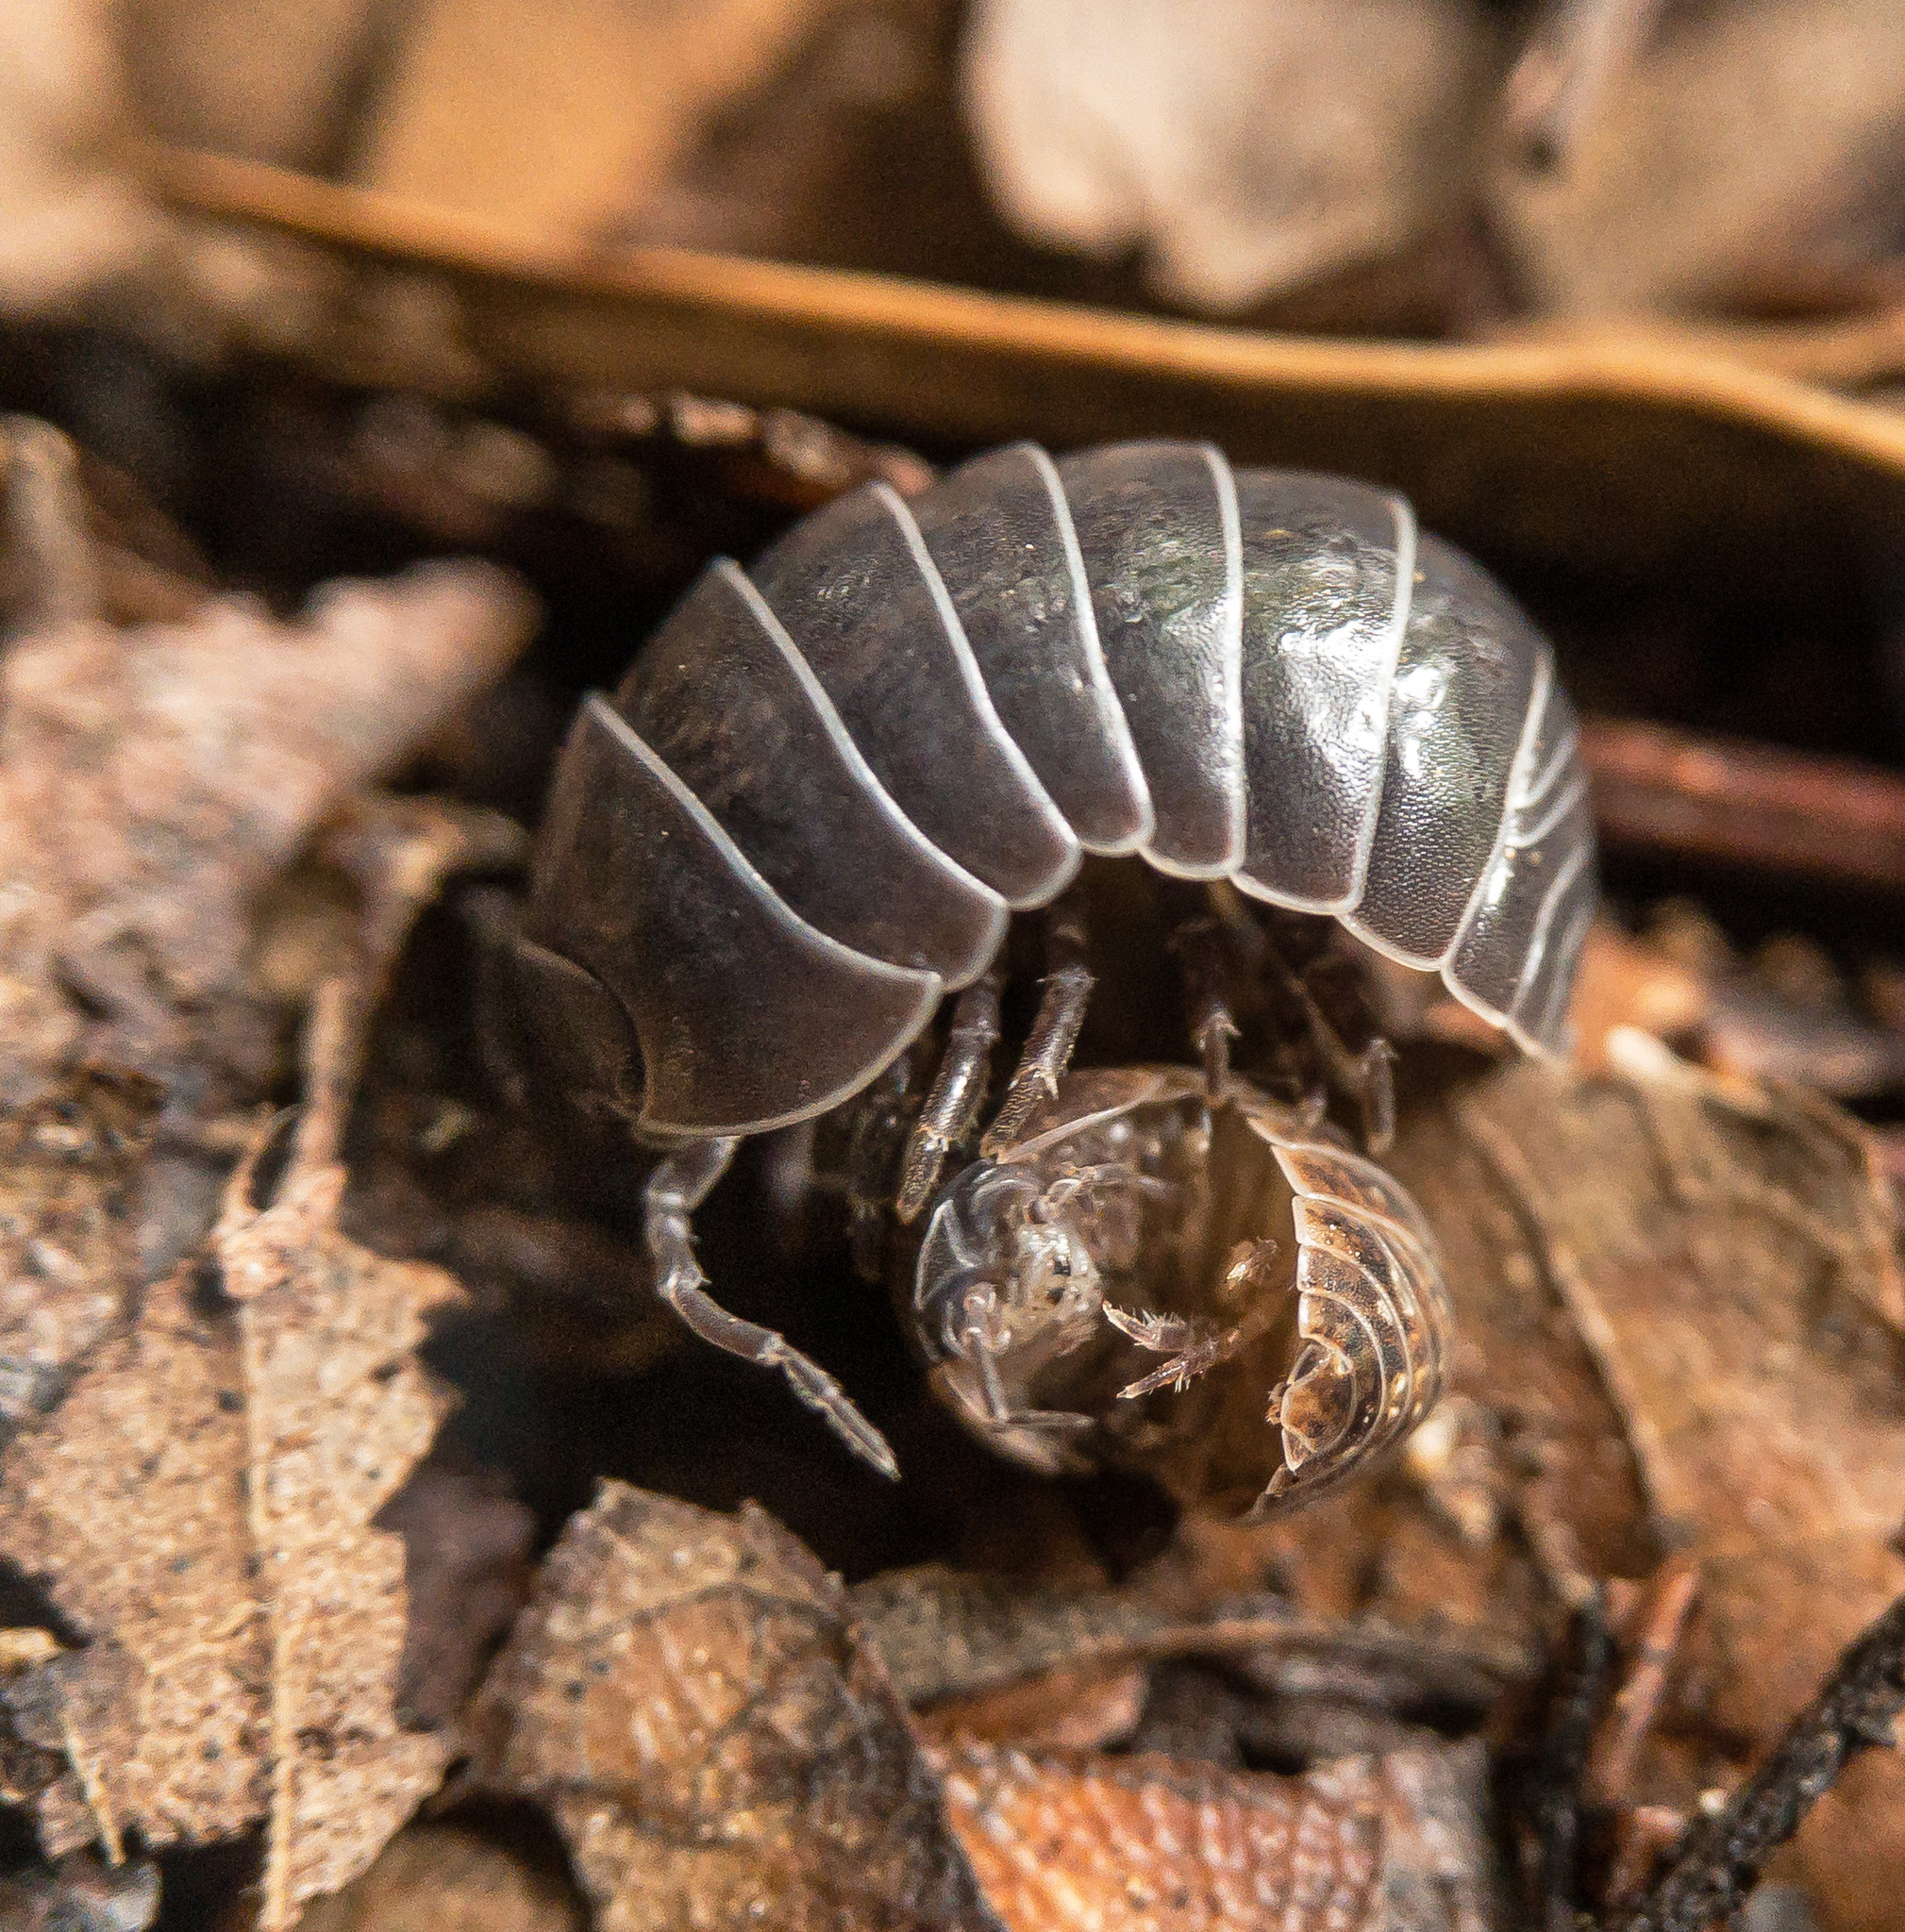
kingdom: Animalia
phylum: Arthropoda
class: Malacostraca
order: Isopoda
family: Armadillidiidae
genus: Armadillidium
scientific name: Armadillidium vulgare
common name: Common pill woodlouse
